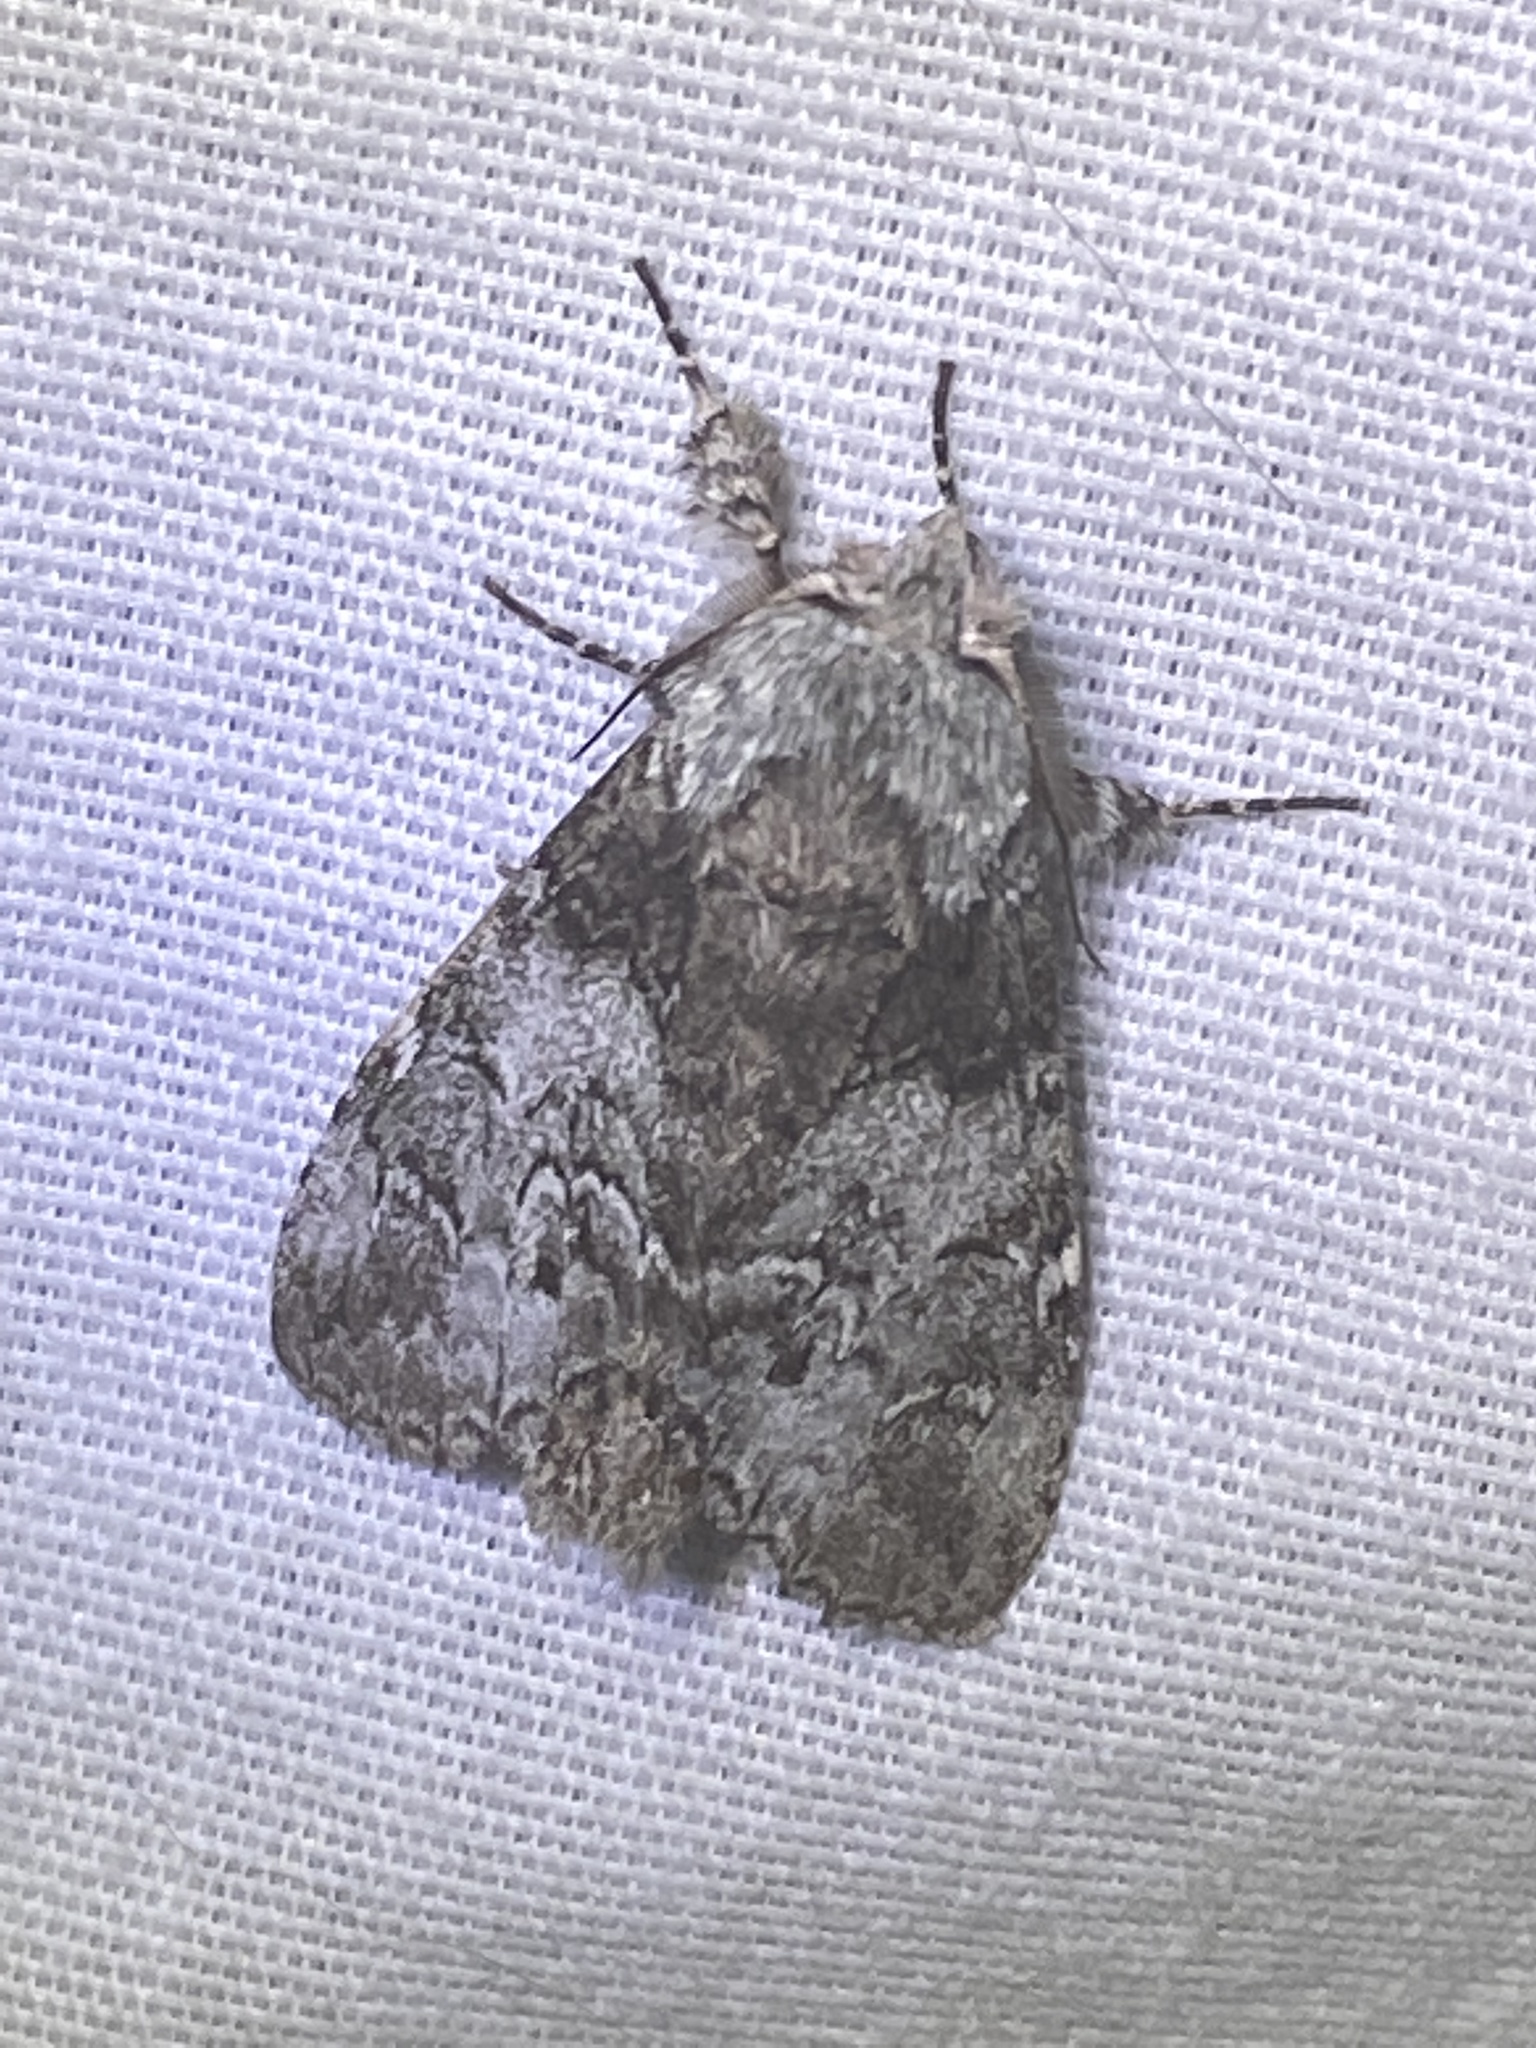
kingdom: Animalia
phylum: Arthropoda
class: Insecta
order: Lepidoptera
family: Notodontidae
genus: Macrurocampa
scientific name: Macrurocampa marthesia
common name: Mottled prominent
